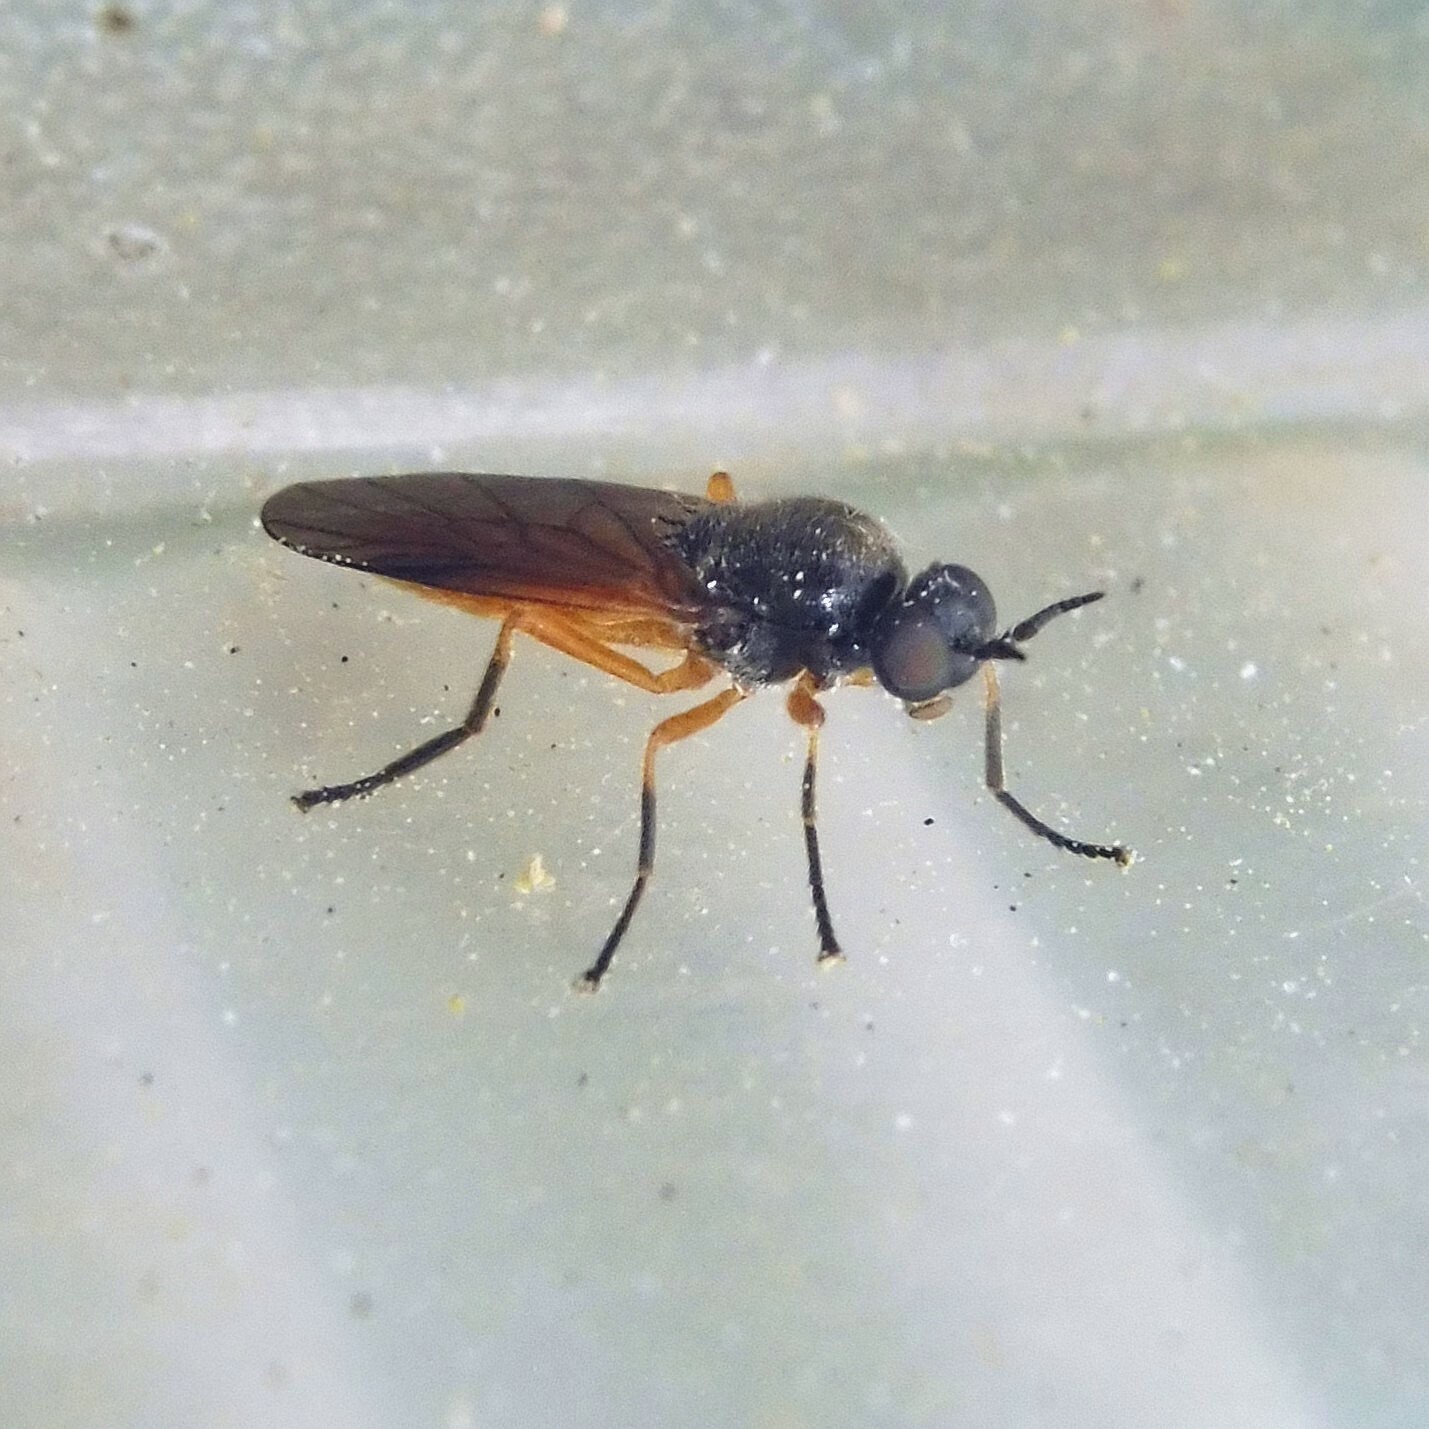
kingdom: Animalia
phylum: Arthropoda
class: Insecta
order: Diptera
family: Stratiomyidae
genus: Beris
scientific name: Beris vallata
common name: Common orange legionnaire
